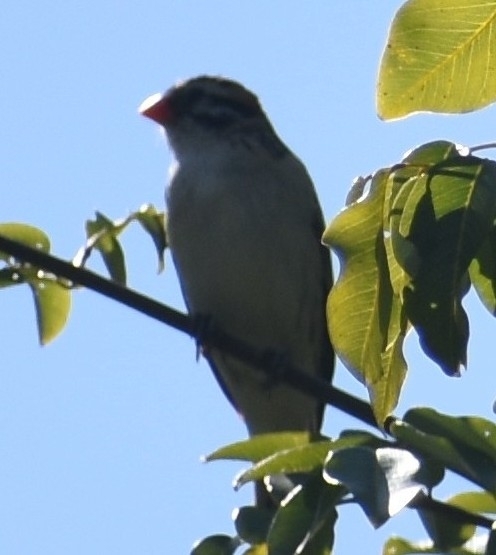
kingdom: Animalia
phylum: Chordata
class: Aves
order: Passeriformes
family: Viduidae
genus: Vidua
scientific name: Vidua macroura
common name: Pin-tailed whydah
